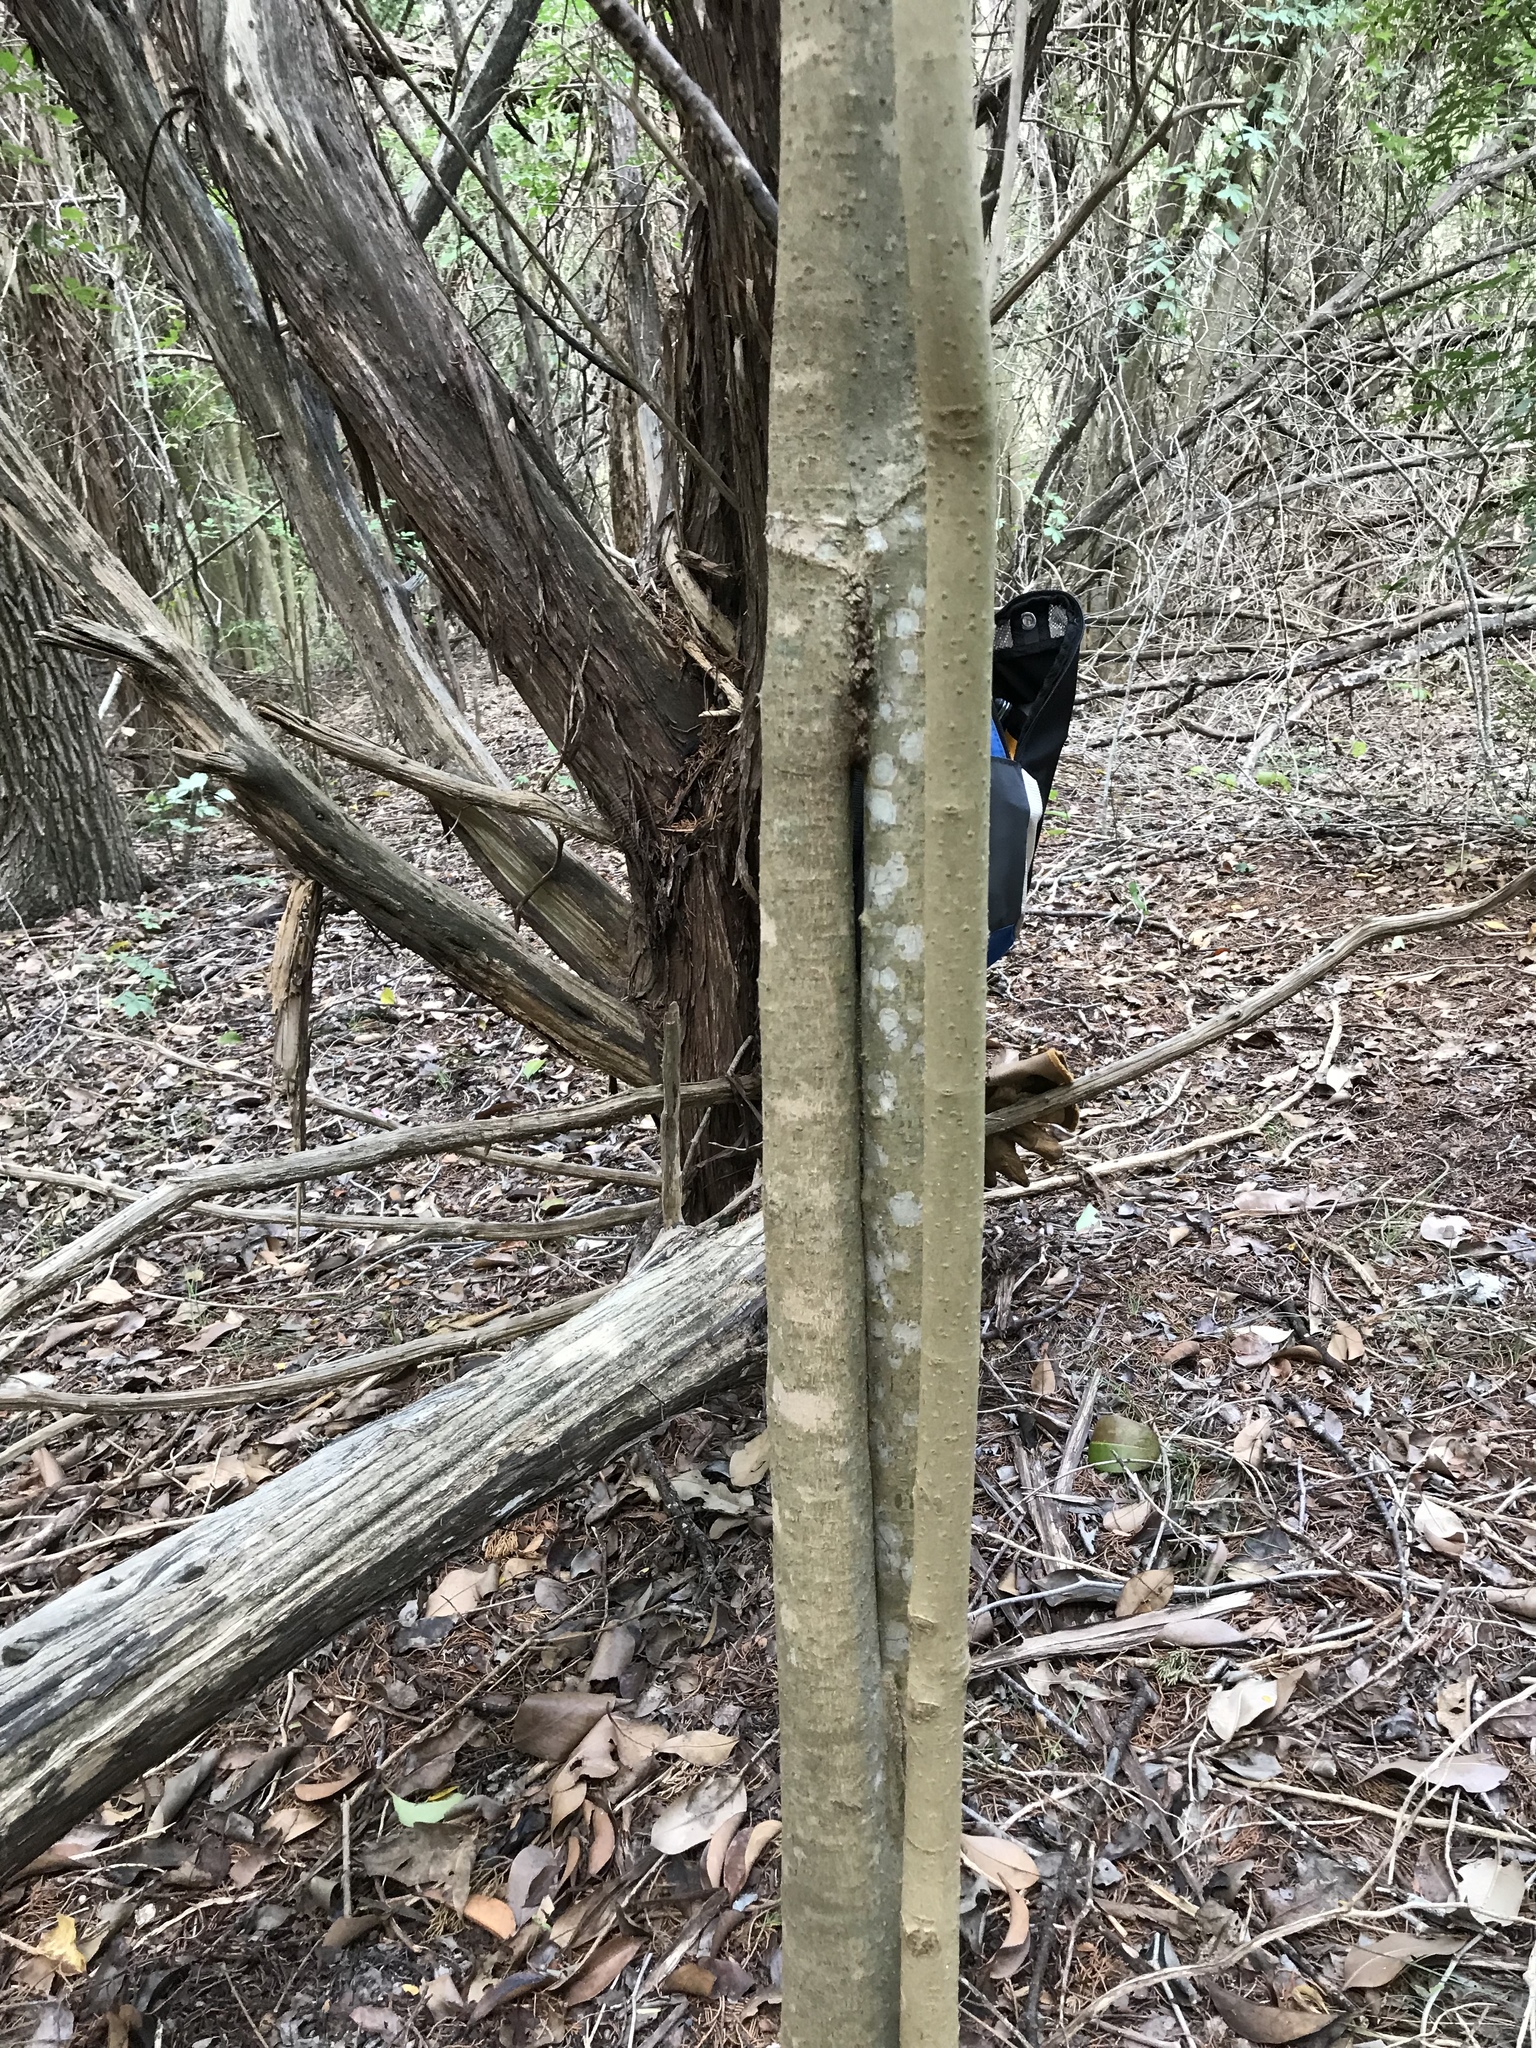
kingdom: Plantae
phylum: Tracheophyta
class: Magnoliopsida
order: Lamiales
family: Oleaceae
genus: Ligustrum
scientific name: Ligustrum lucidum
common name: Glossy privet
